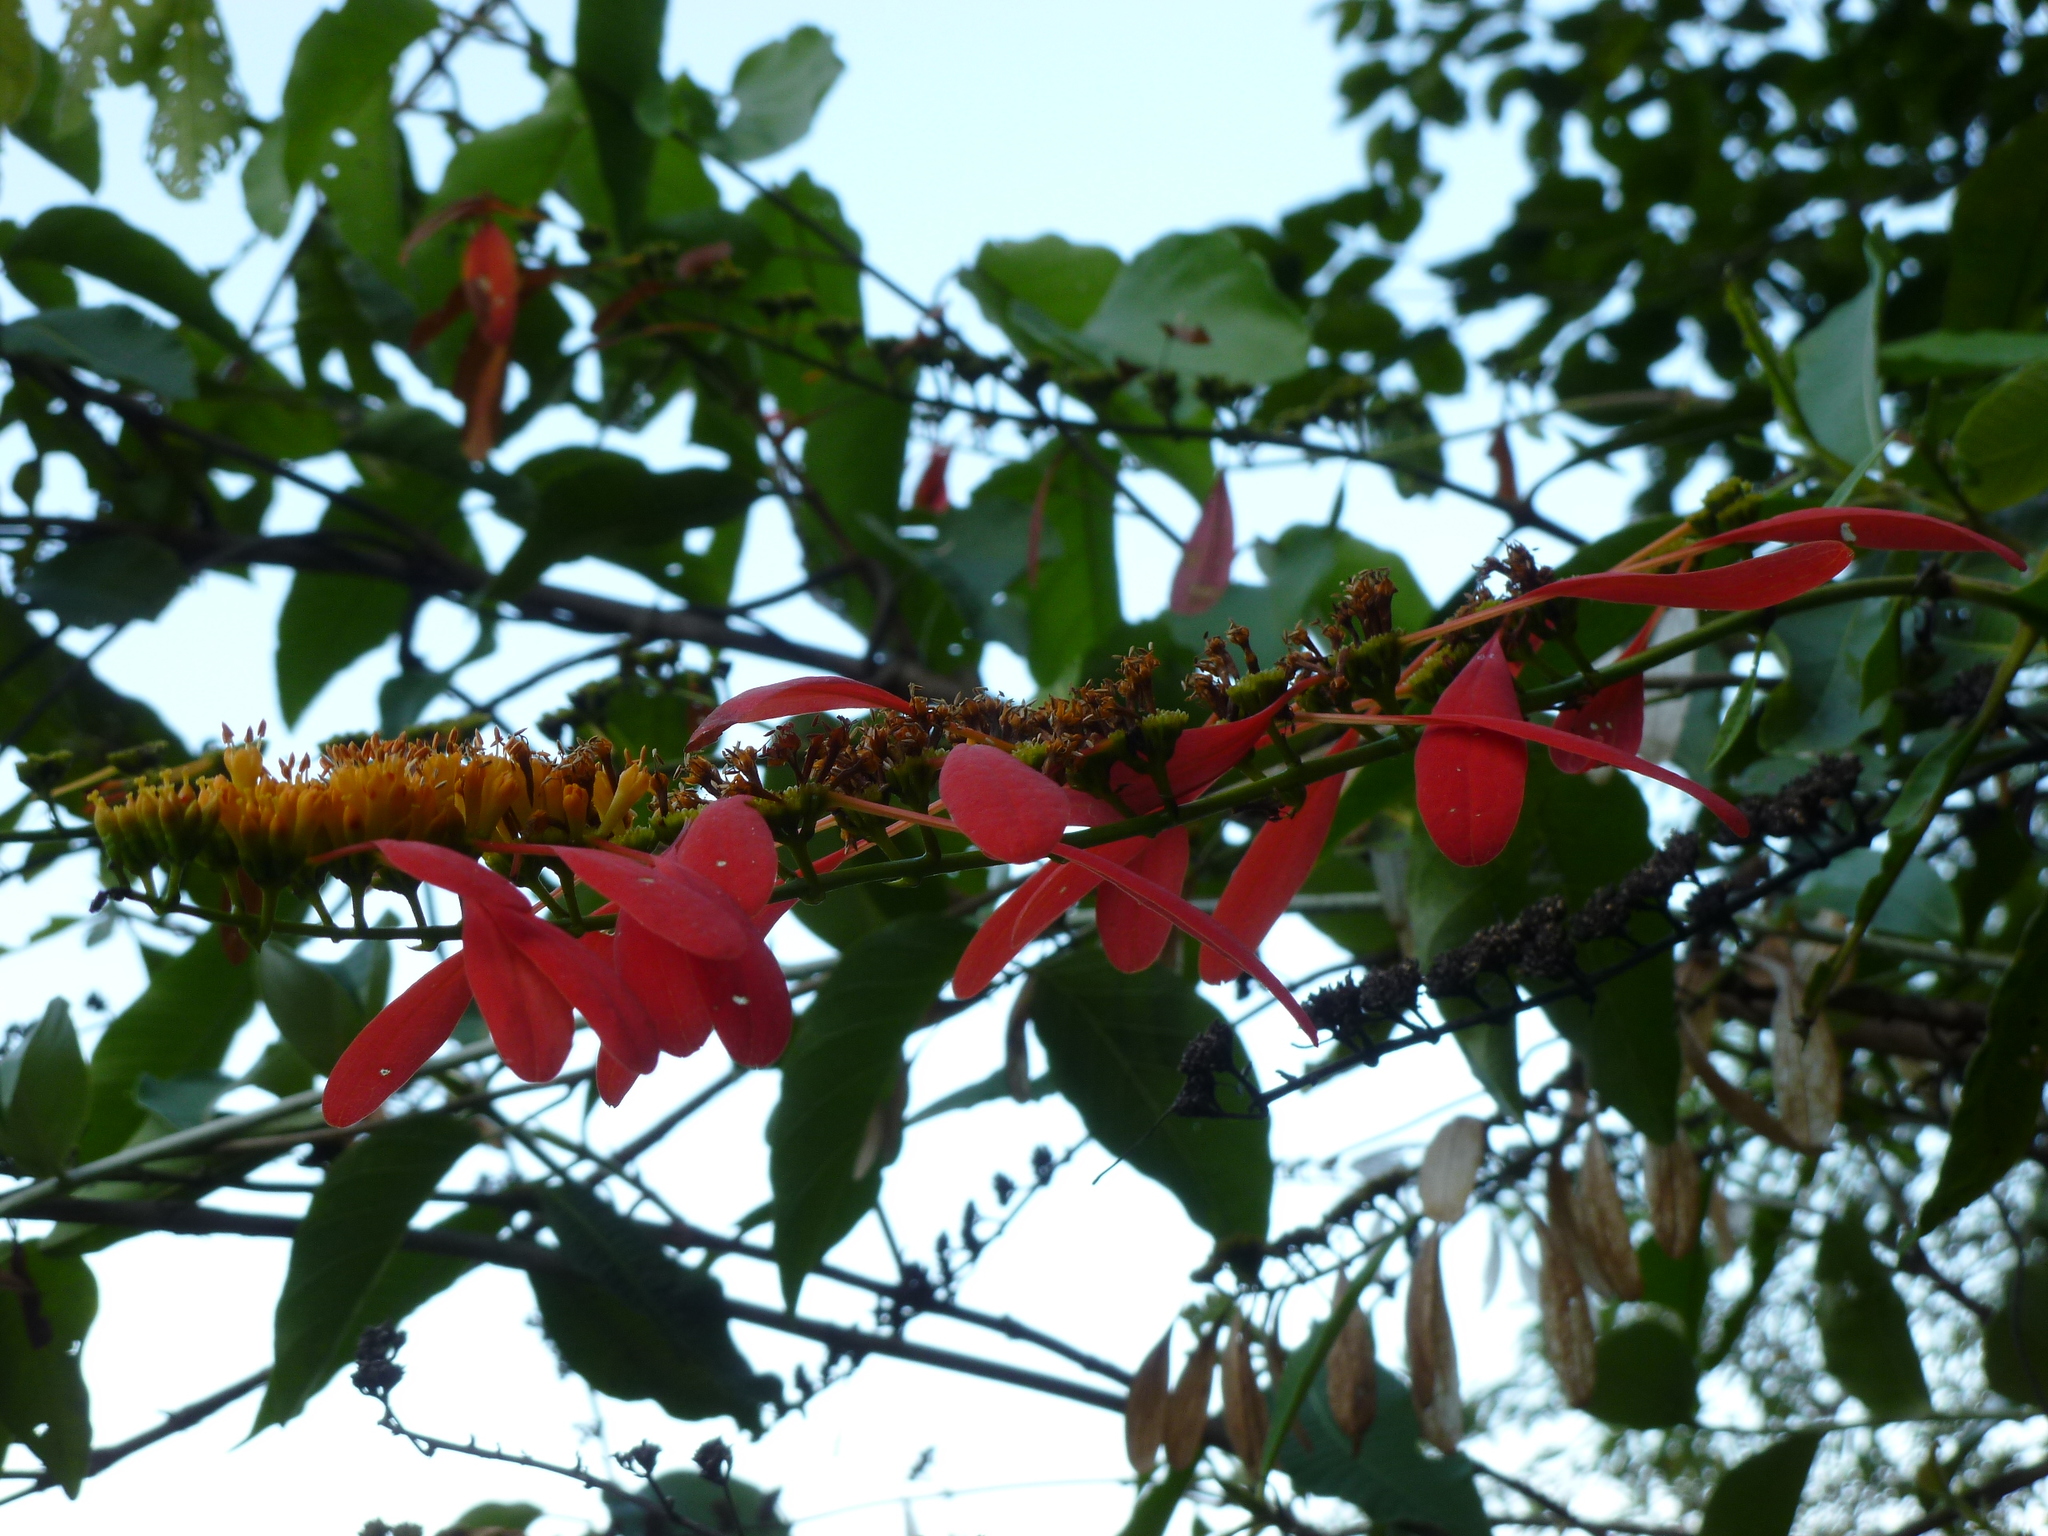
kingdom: Plantae
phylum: Tracheophyta
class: Magnoliopsida
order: Gentianales
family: Rubiaceae
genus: Warszewiczia
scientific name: Warszewiczia coccinea
